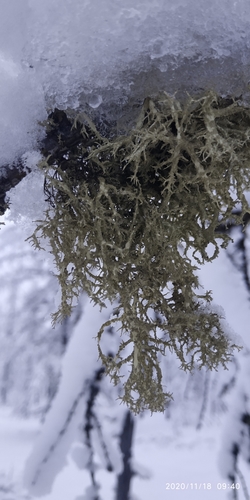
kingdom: Fungi
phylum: Ascomycota
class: Lecanoromycetes
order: Lecanorales
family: Parmeliaceae
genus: Evernia
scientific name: Evernia mesomorpha
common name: Boreal oak moss lichen
